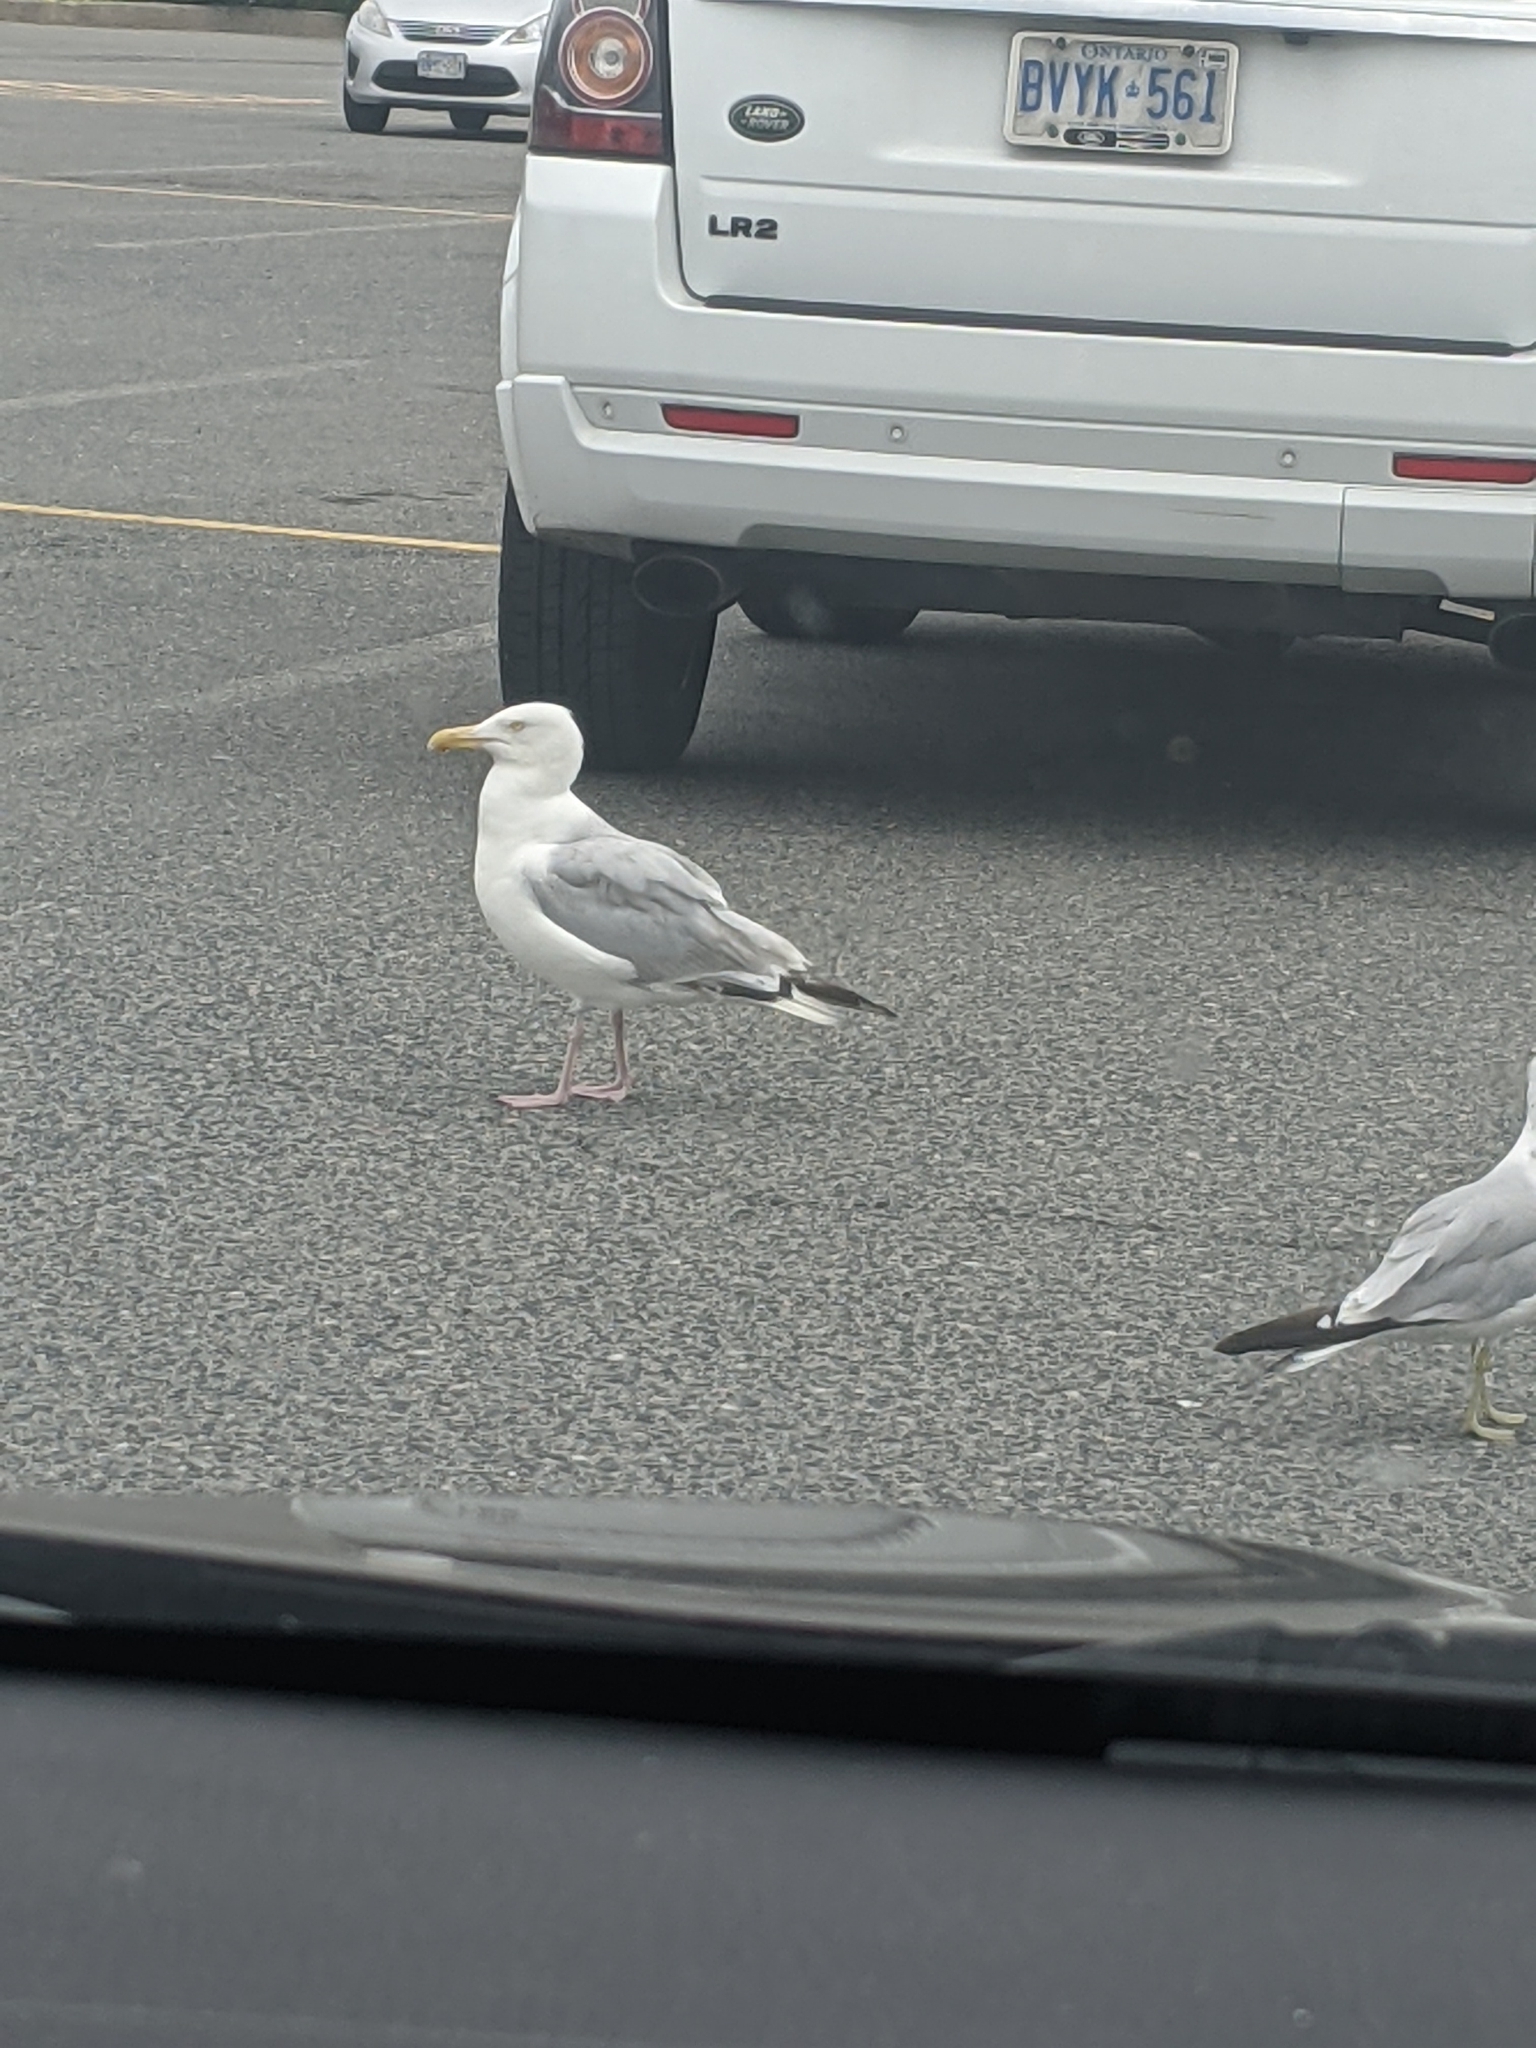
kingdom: Animalia
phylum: Chordata
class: Aves
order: Charadriiformes
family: Laridae
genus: Larus
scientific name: Larus argentatus
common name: Herring gull
